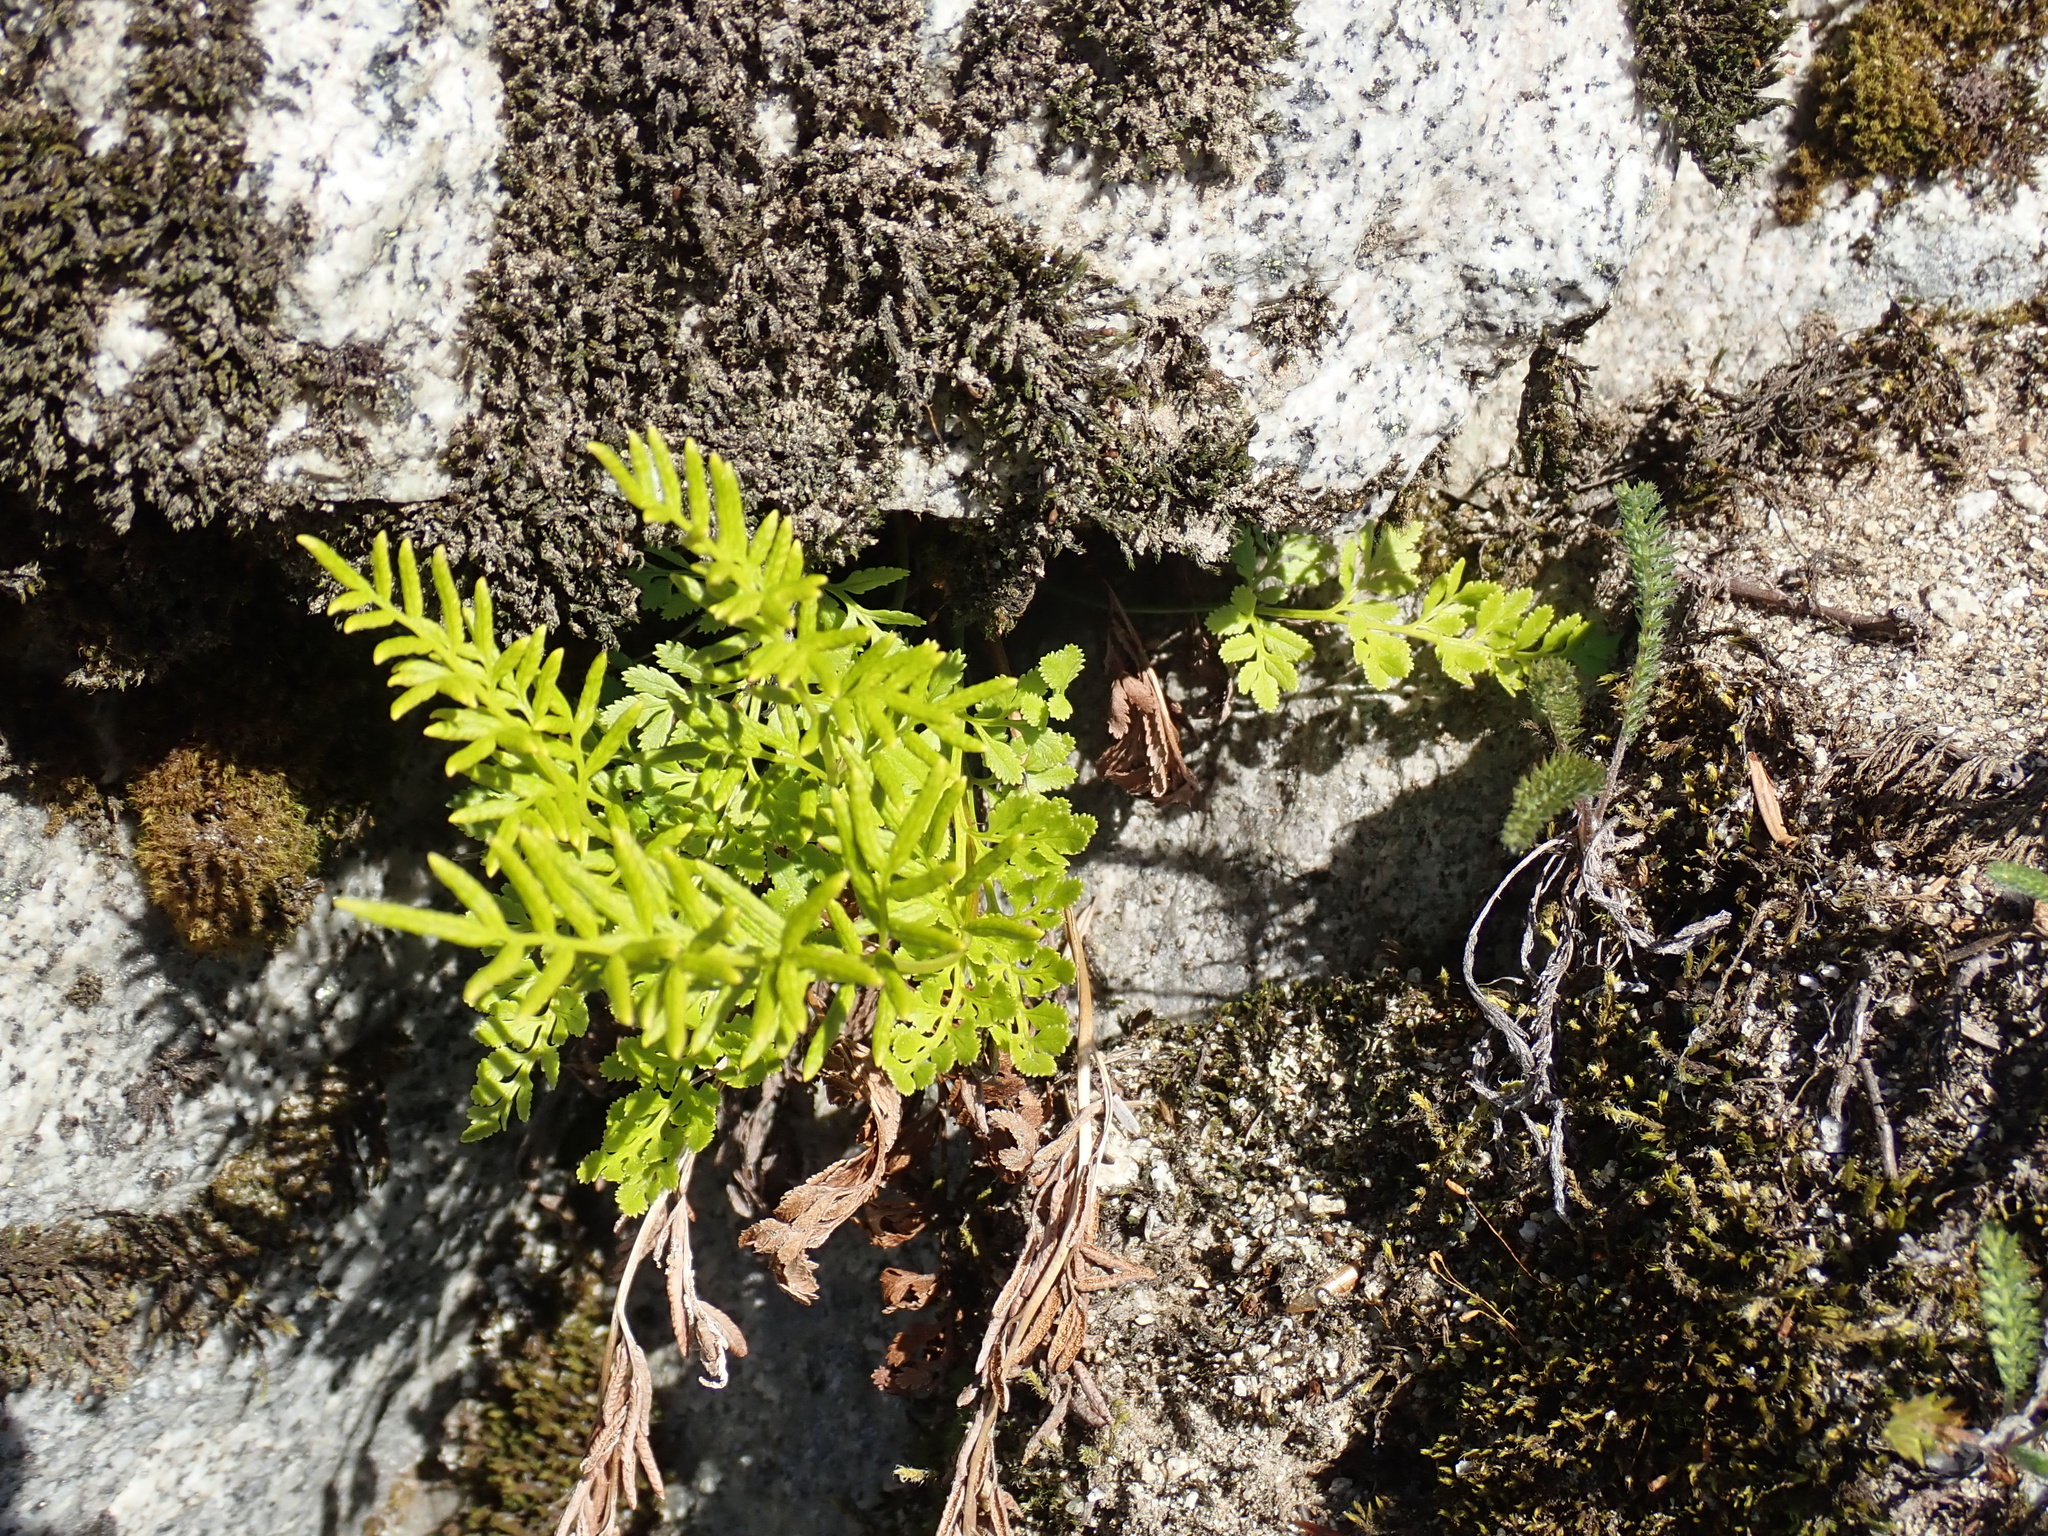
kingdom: Plantae
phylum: Tracheophyta
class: Polypodiopsida
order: Polypodiales
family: Pteridaceae
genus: Cryptogramma
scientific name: Cryptogramma acrostichoides
